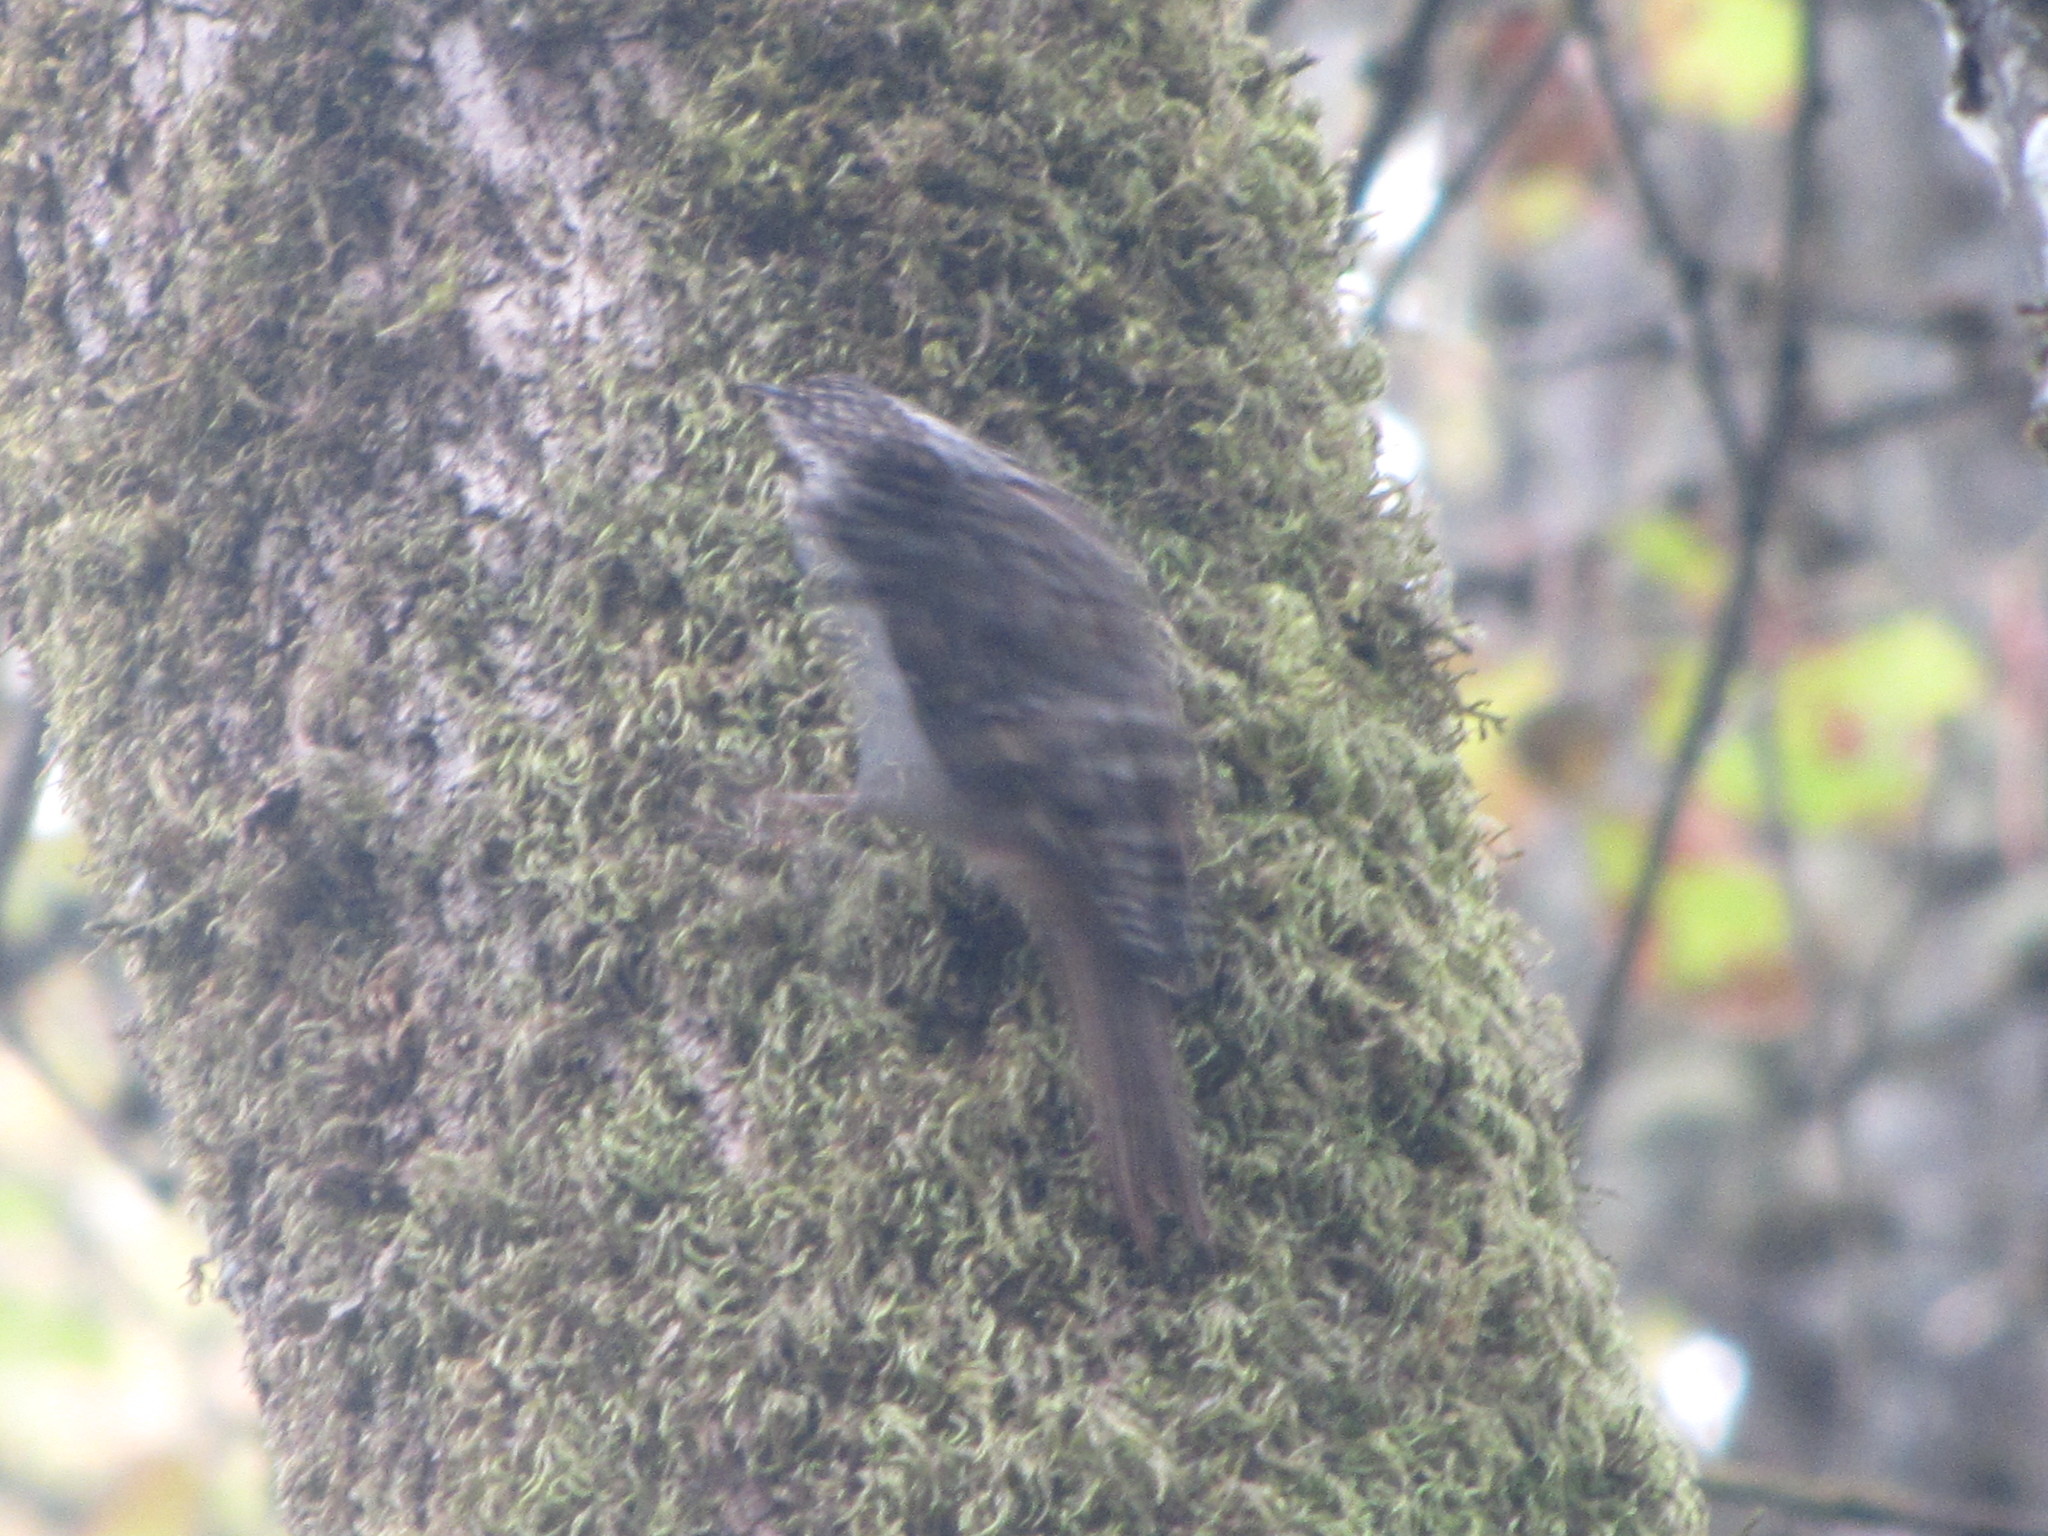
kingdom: Animalia
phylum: Chordata
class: Aves
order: Passeriformes
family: Certhiidae
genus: Certhia
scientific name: Certhia americana
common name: Brown creeper
